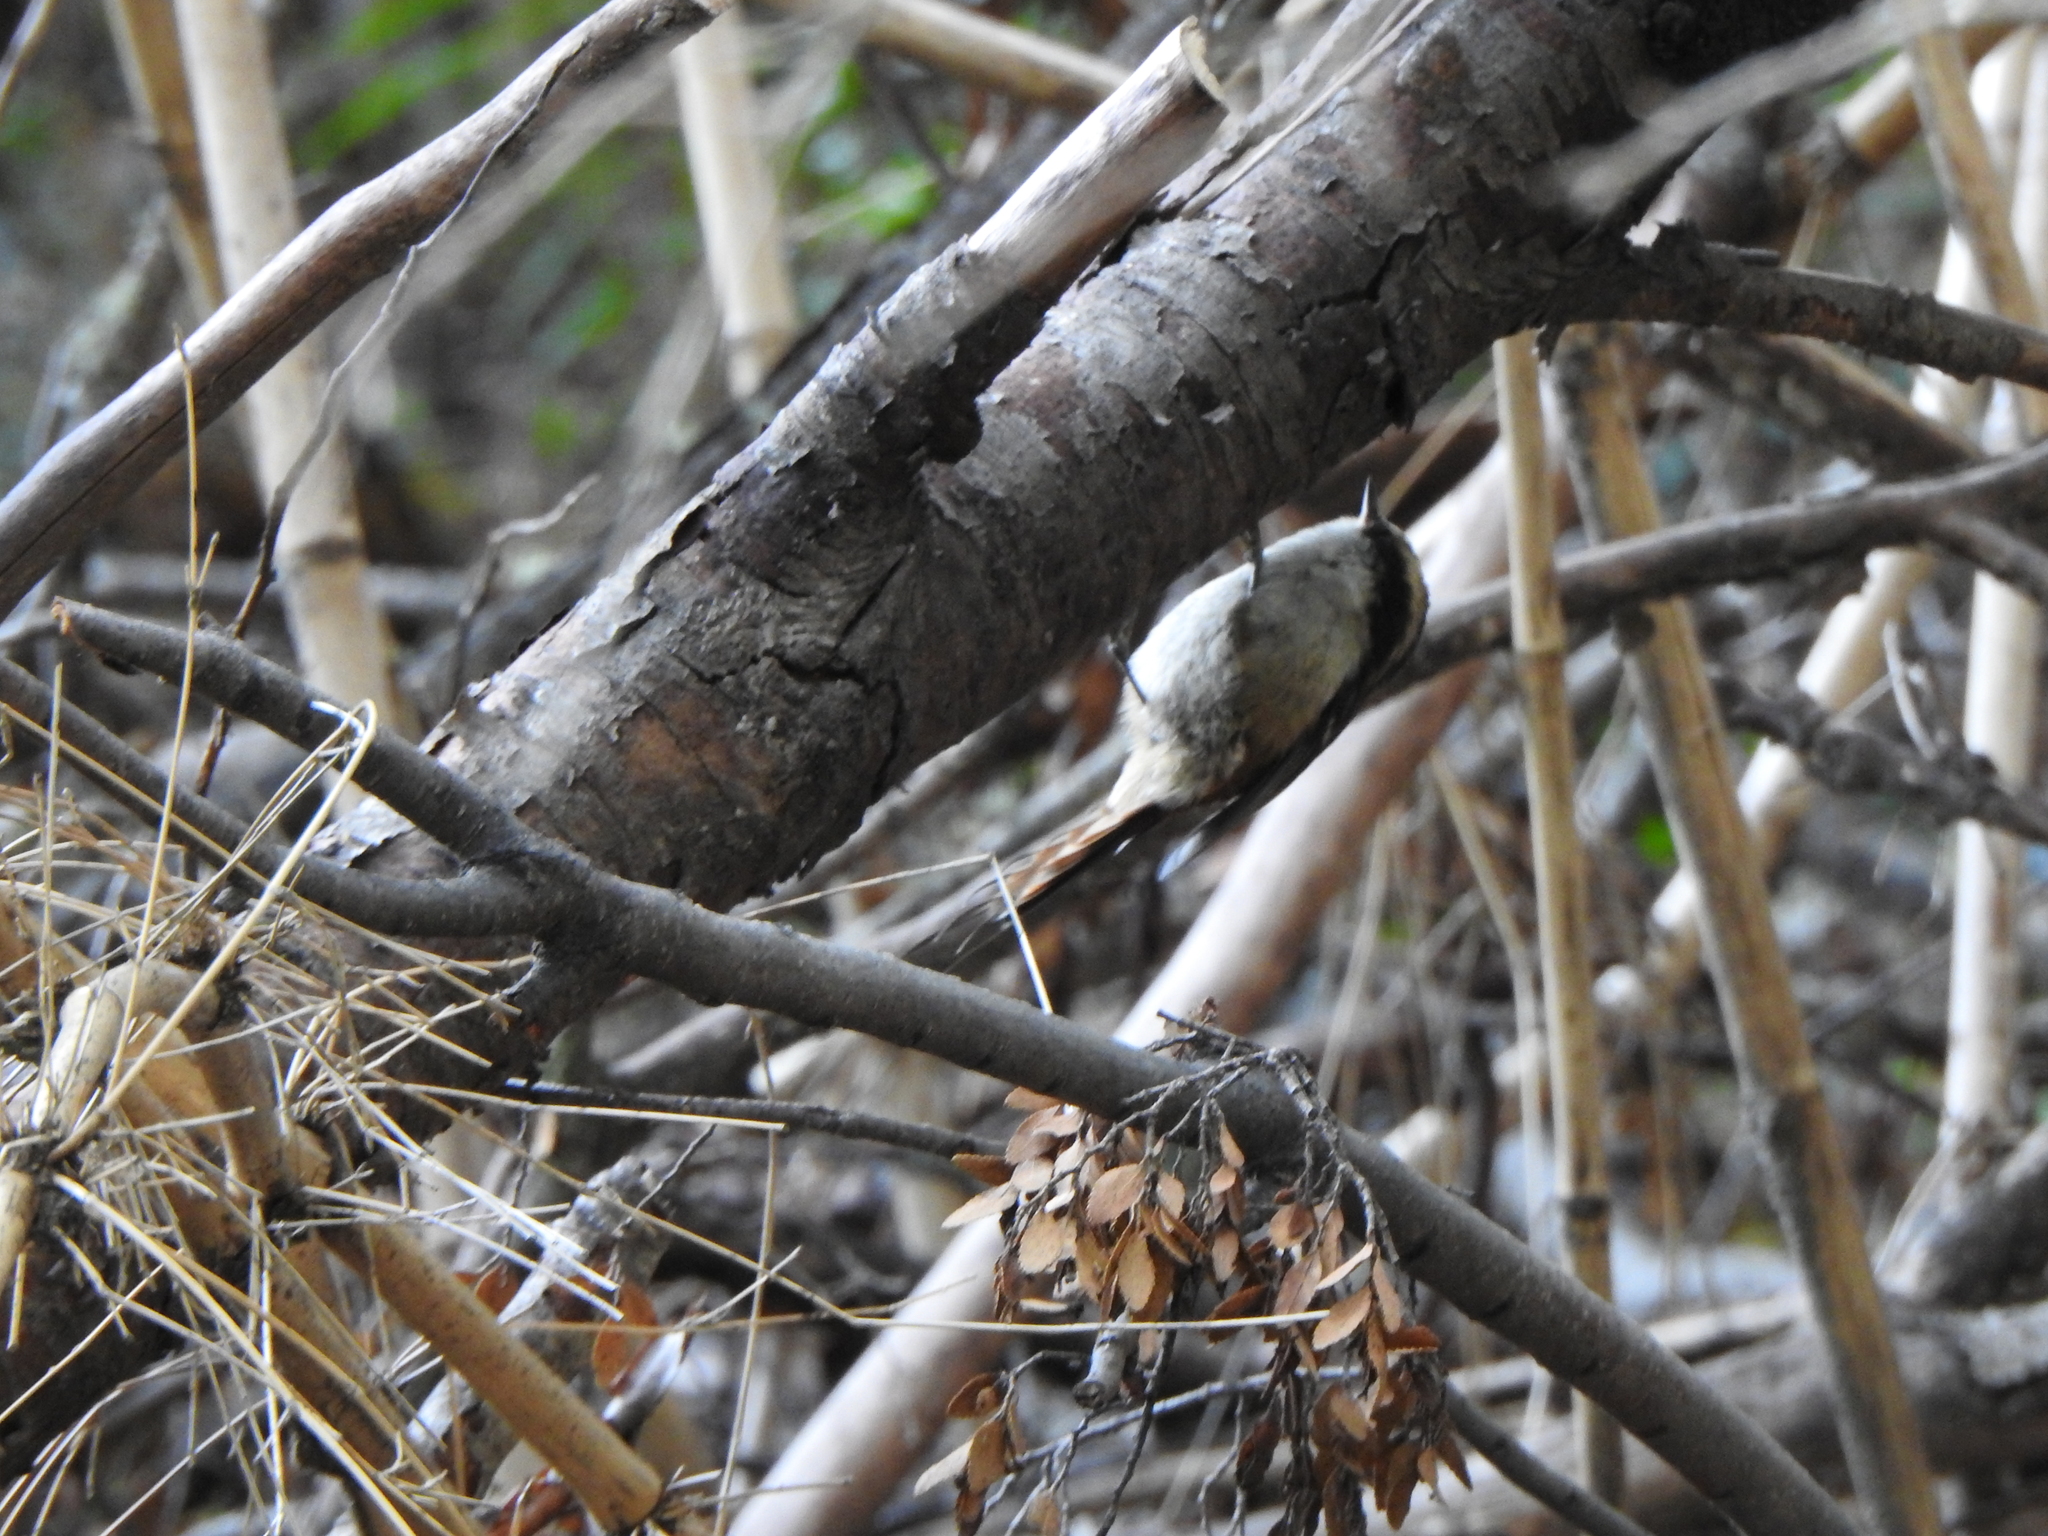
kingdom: Animalia
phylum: Chordata
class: Aves
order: Passeriformes
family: Furnariidae
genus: Aphrastura
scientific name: Aphrastura spinicauda
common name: Thorn-tailed rayadito
